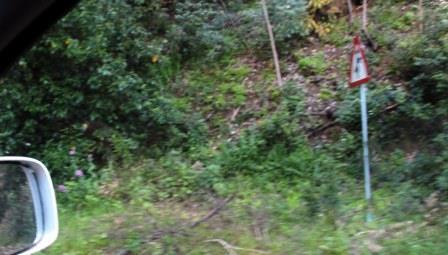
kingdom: Plantae
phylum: Tracheophyta
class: Magnoliopsida
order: Dipsacales
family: Caprifoliaceae
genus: Centranthus
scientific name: Centranthus ruber
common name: Red valerian
